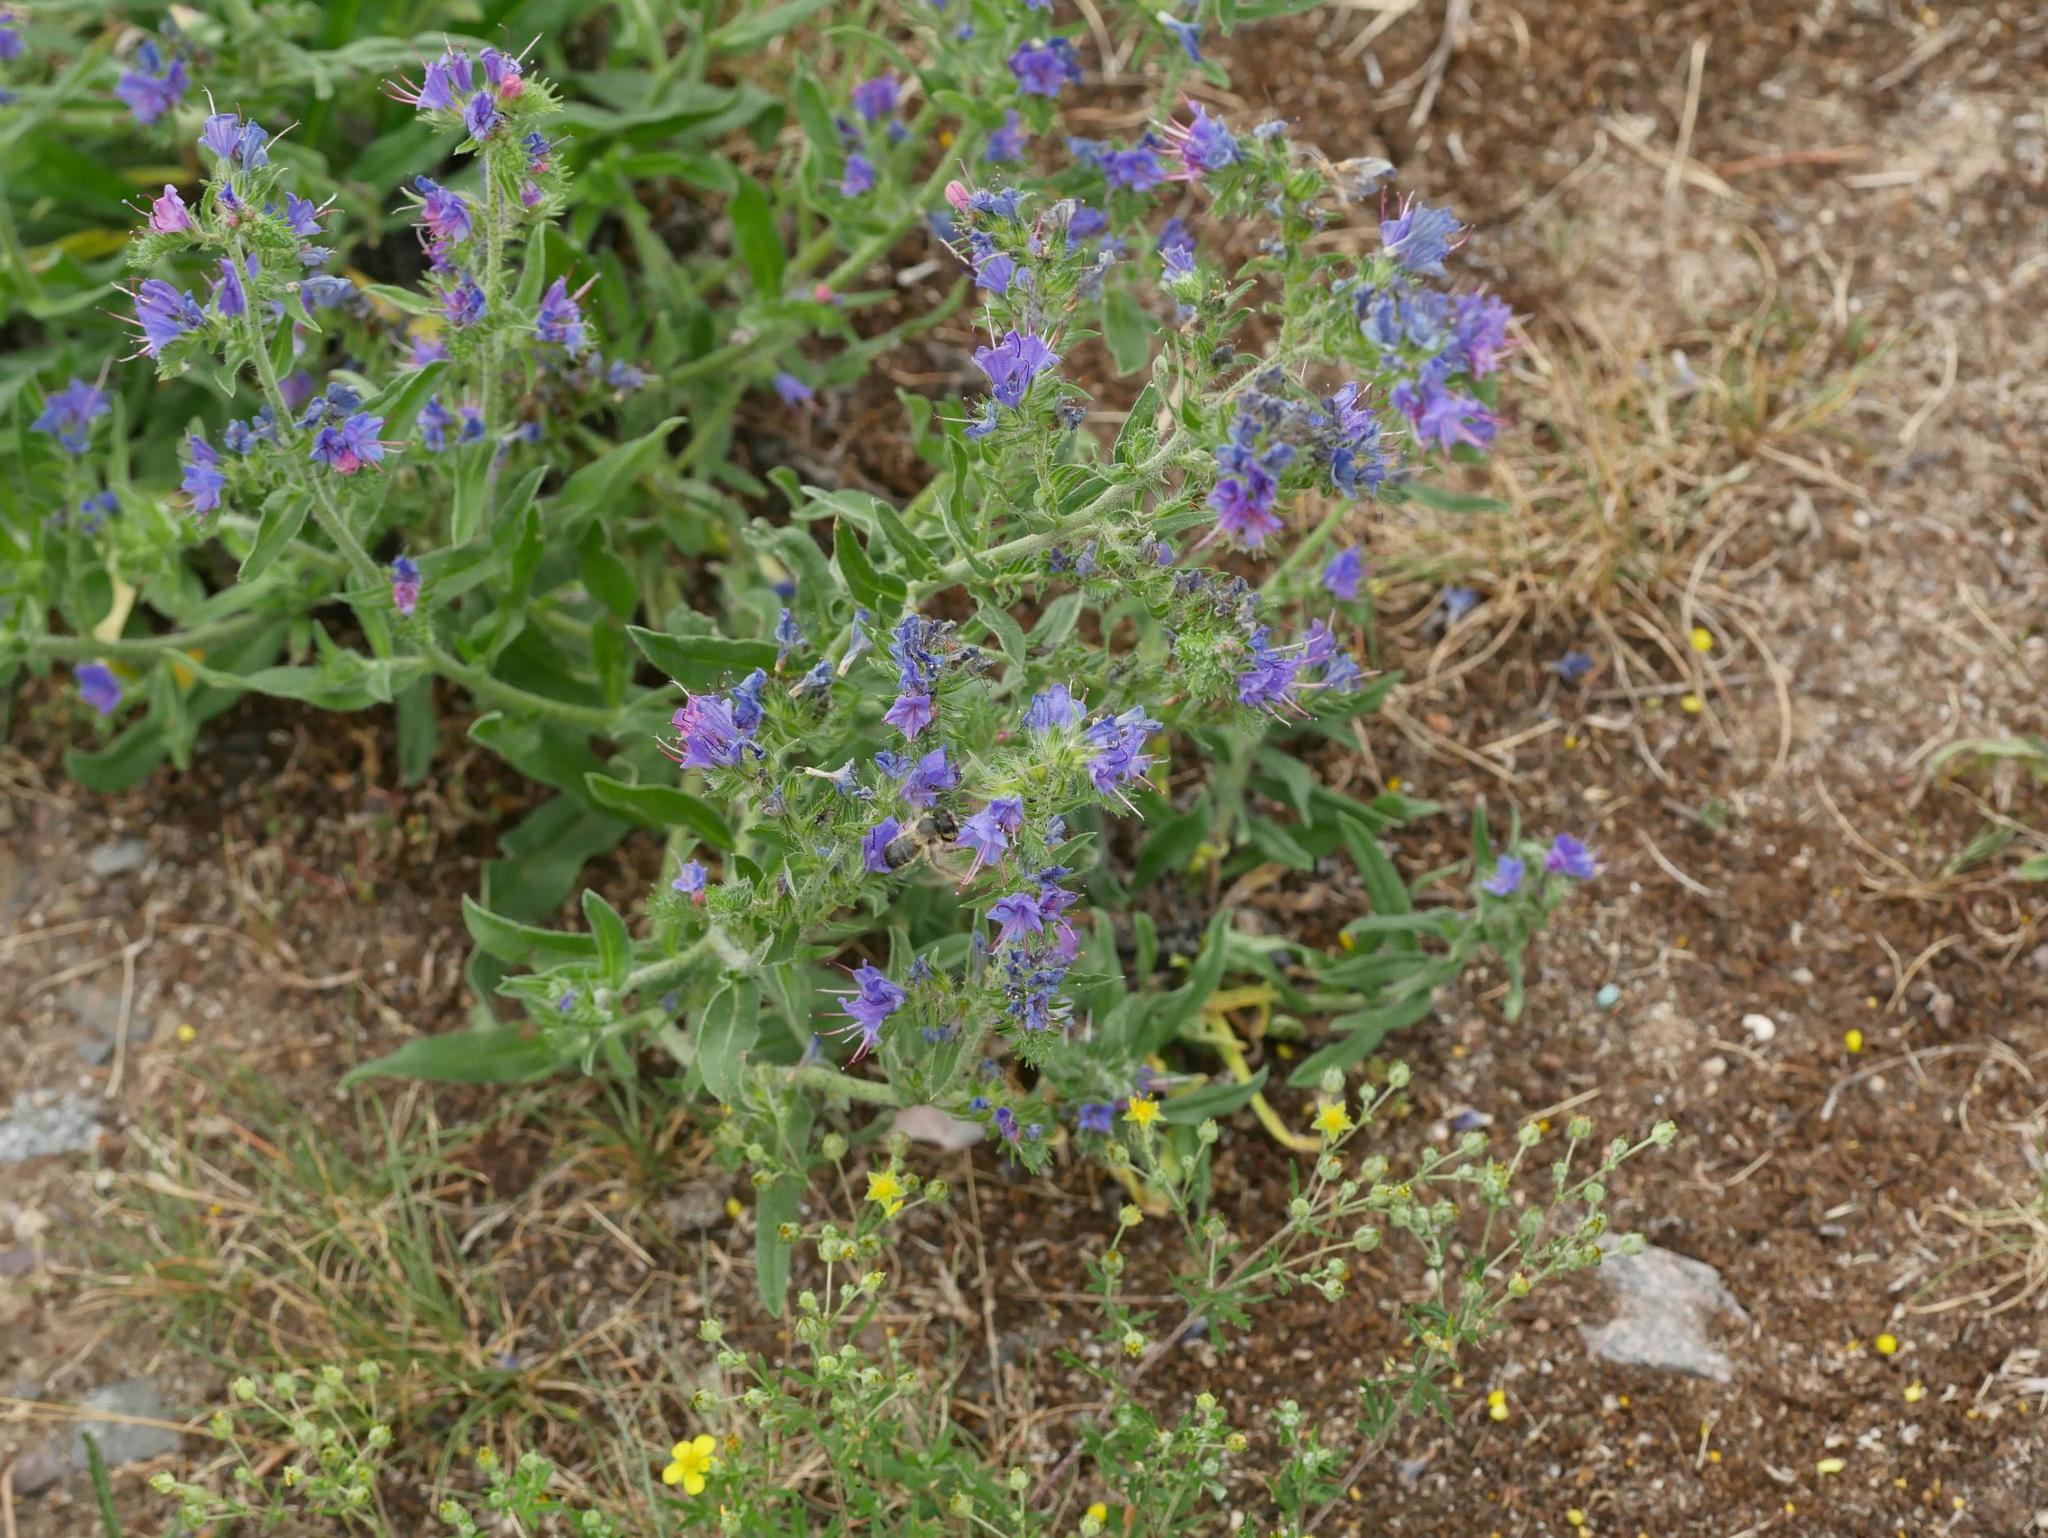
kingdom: Plantae
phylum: Tracheophyta
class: Magnoliopsida
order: Boraginales
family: Boraginaceae
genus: Echium
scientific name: Echium vulgare
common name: Common viper's bugloss
